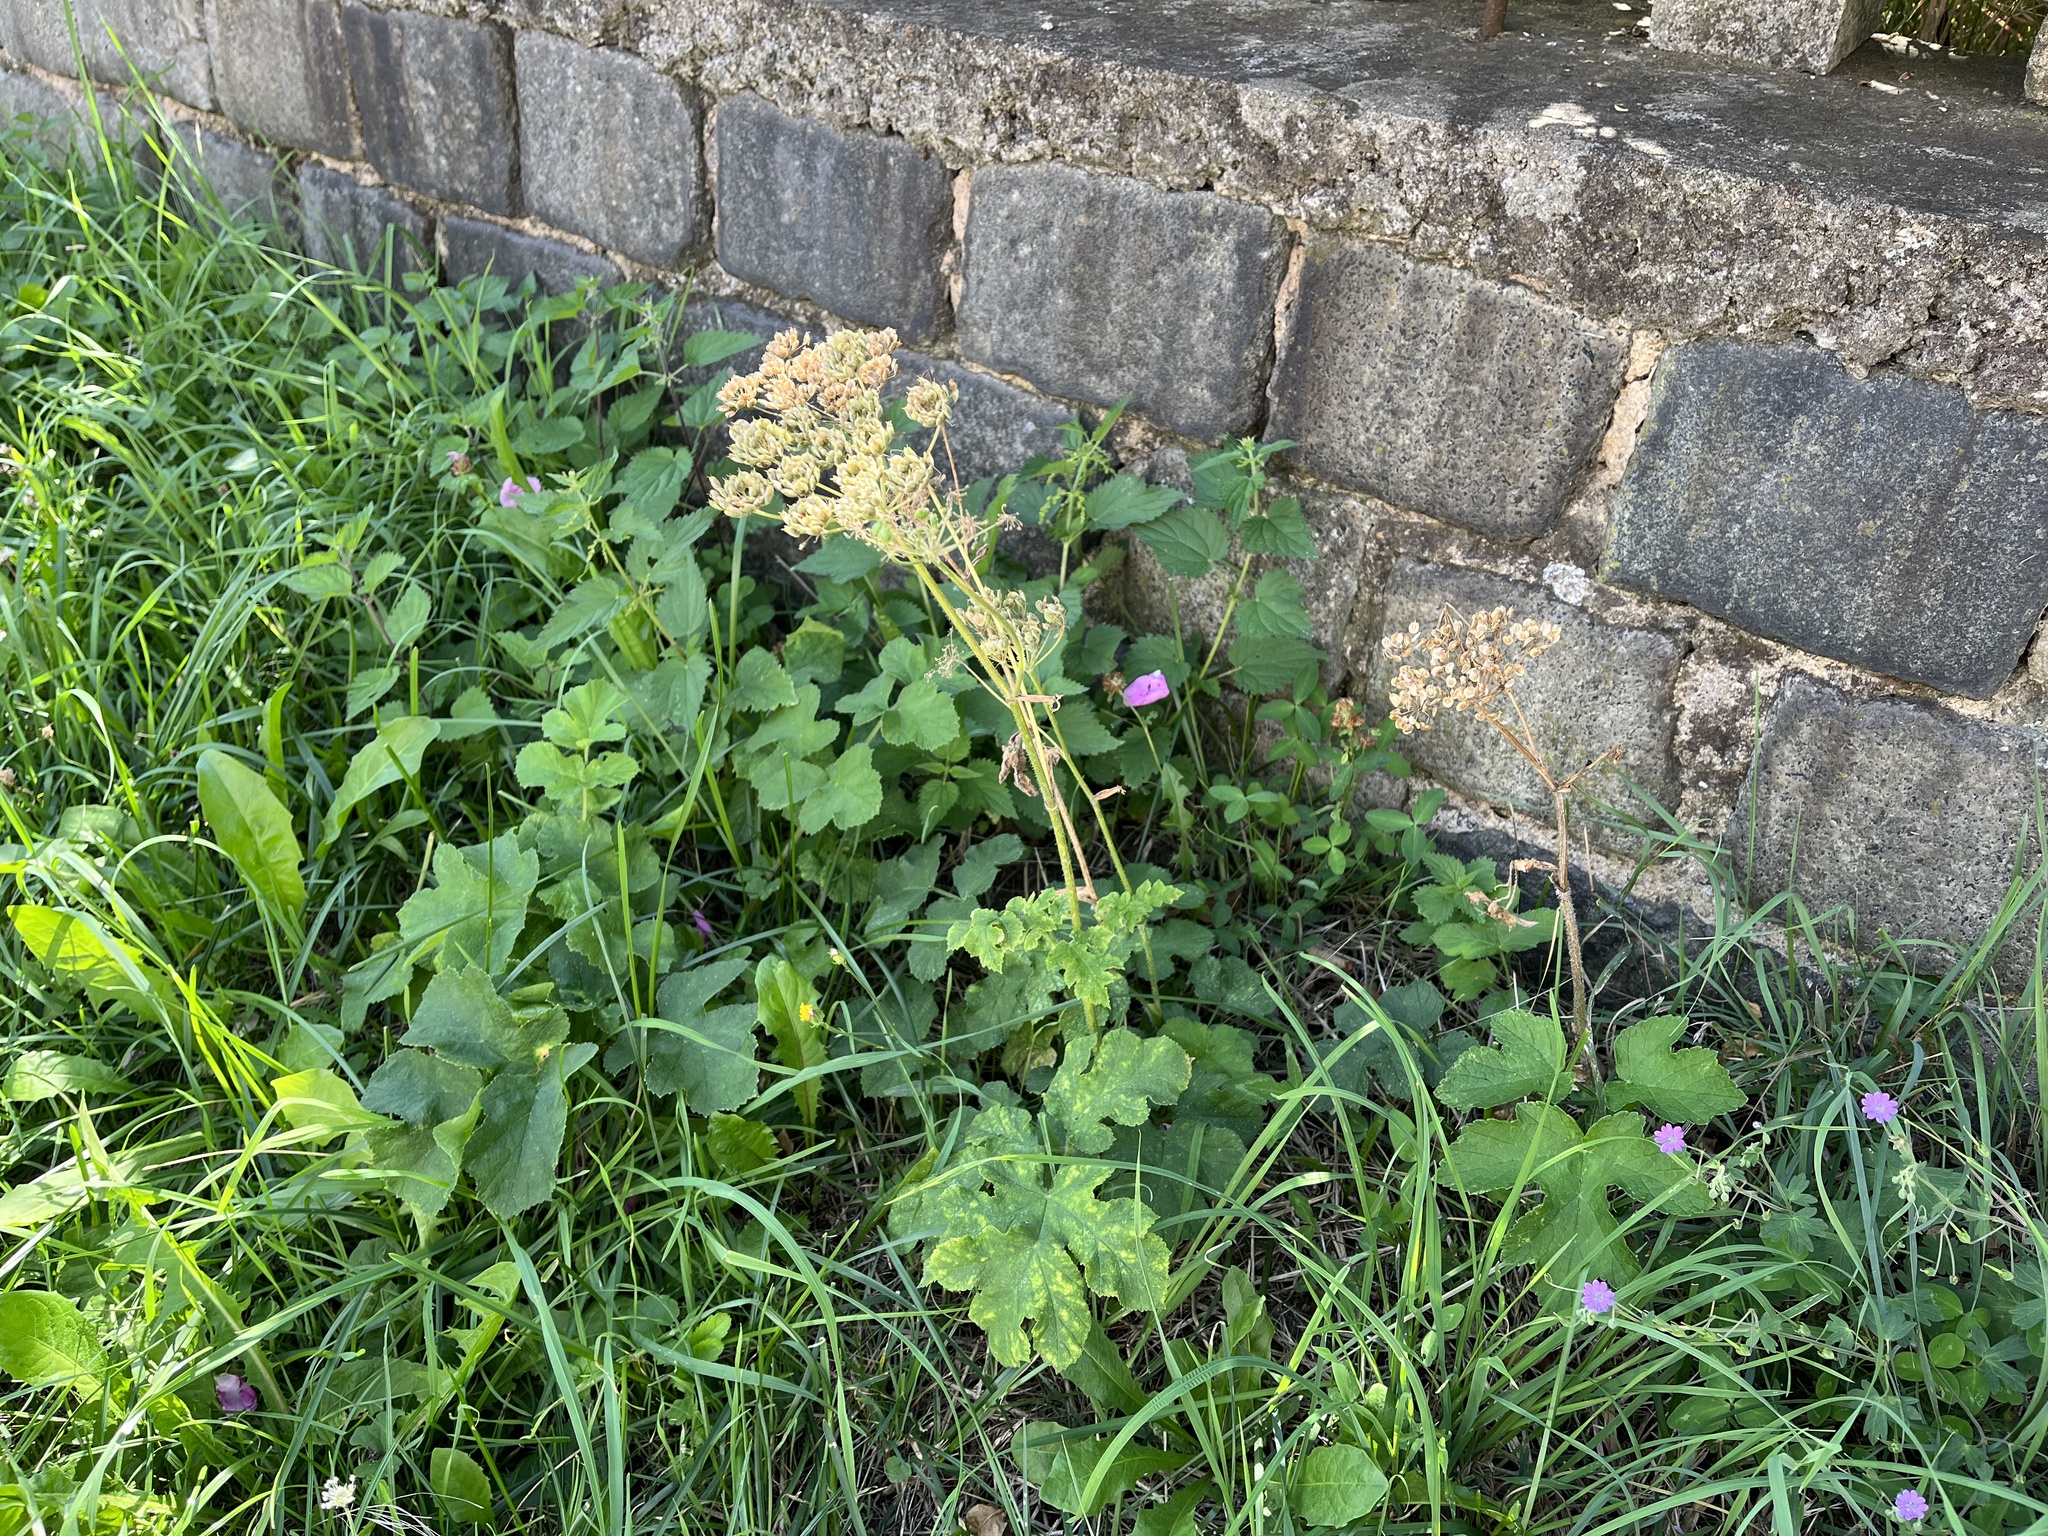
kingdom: Plantae
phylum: Tracheophyta
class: Magnoliopsida
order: Apiales
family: Apiaceae
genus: Heracleum
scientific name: Heracleum sphondylium
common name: Hogweed
